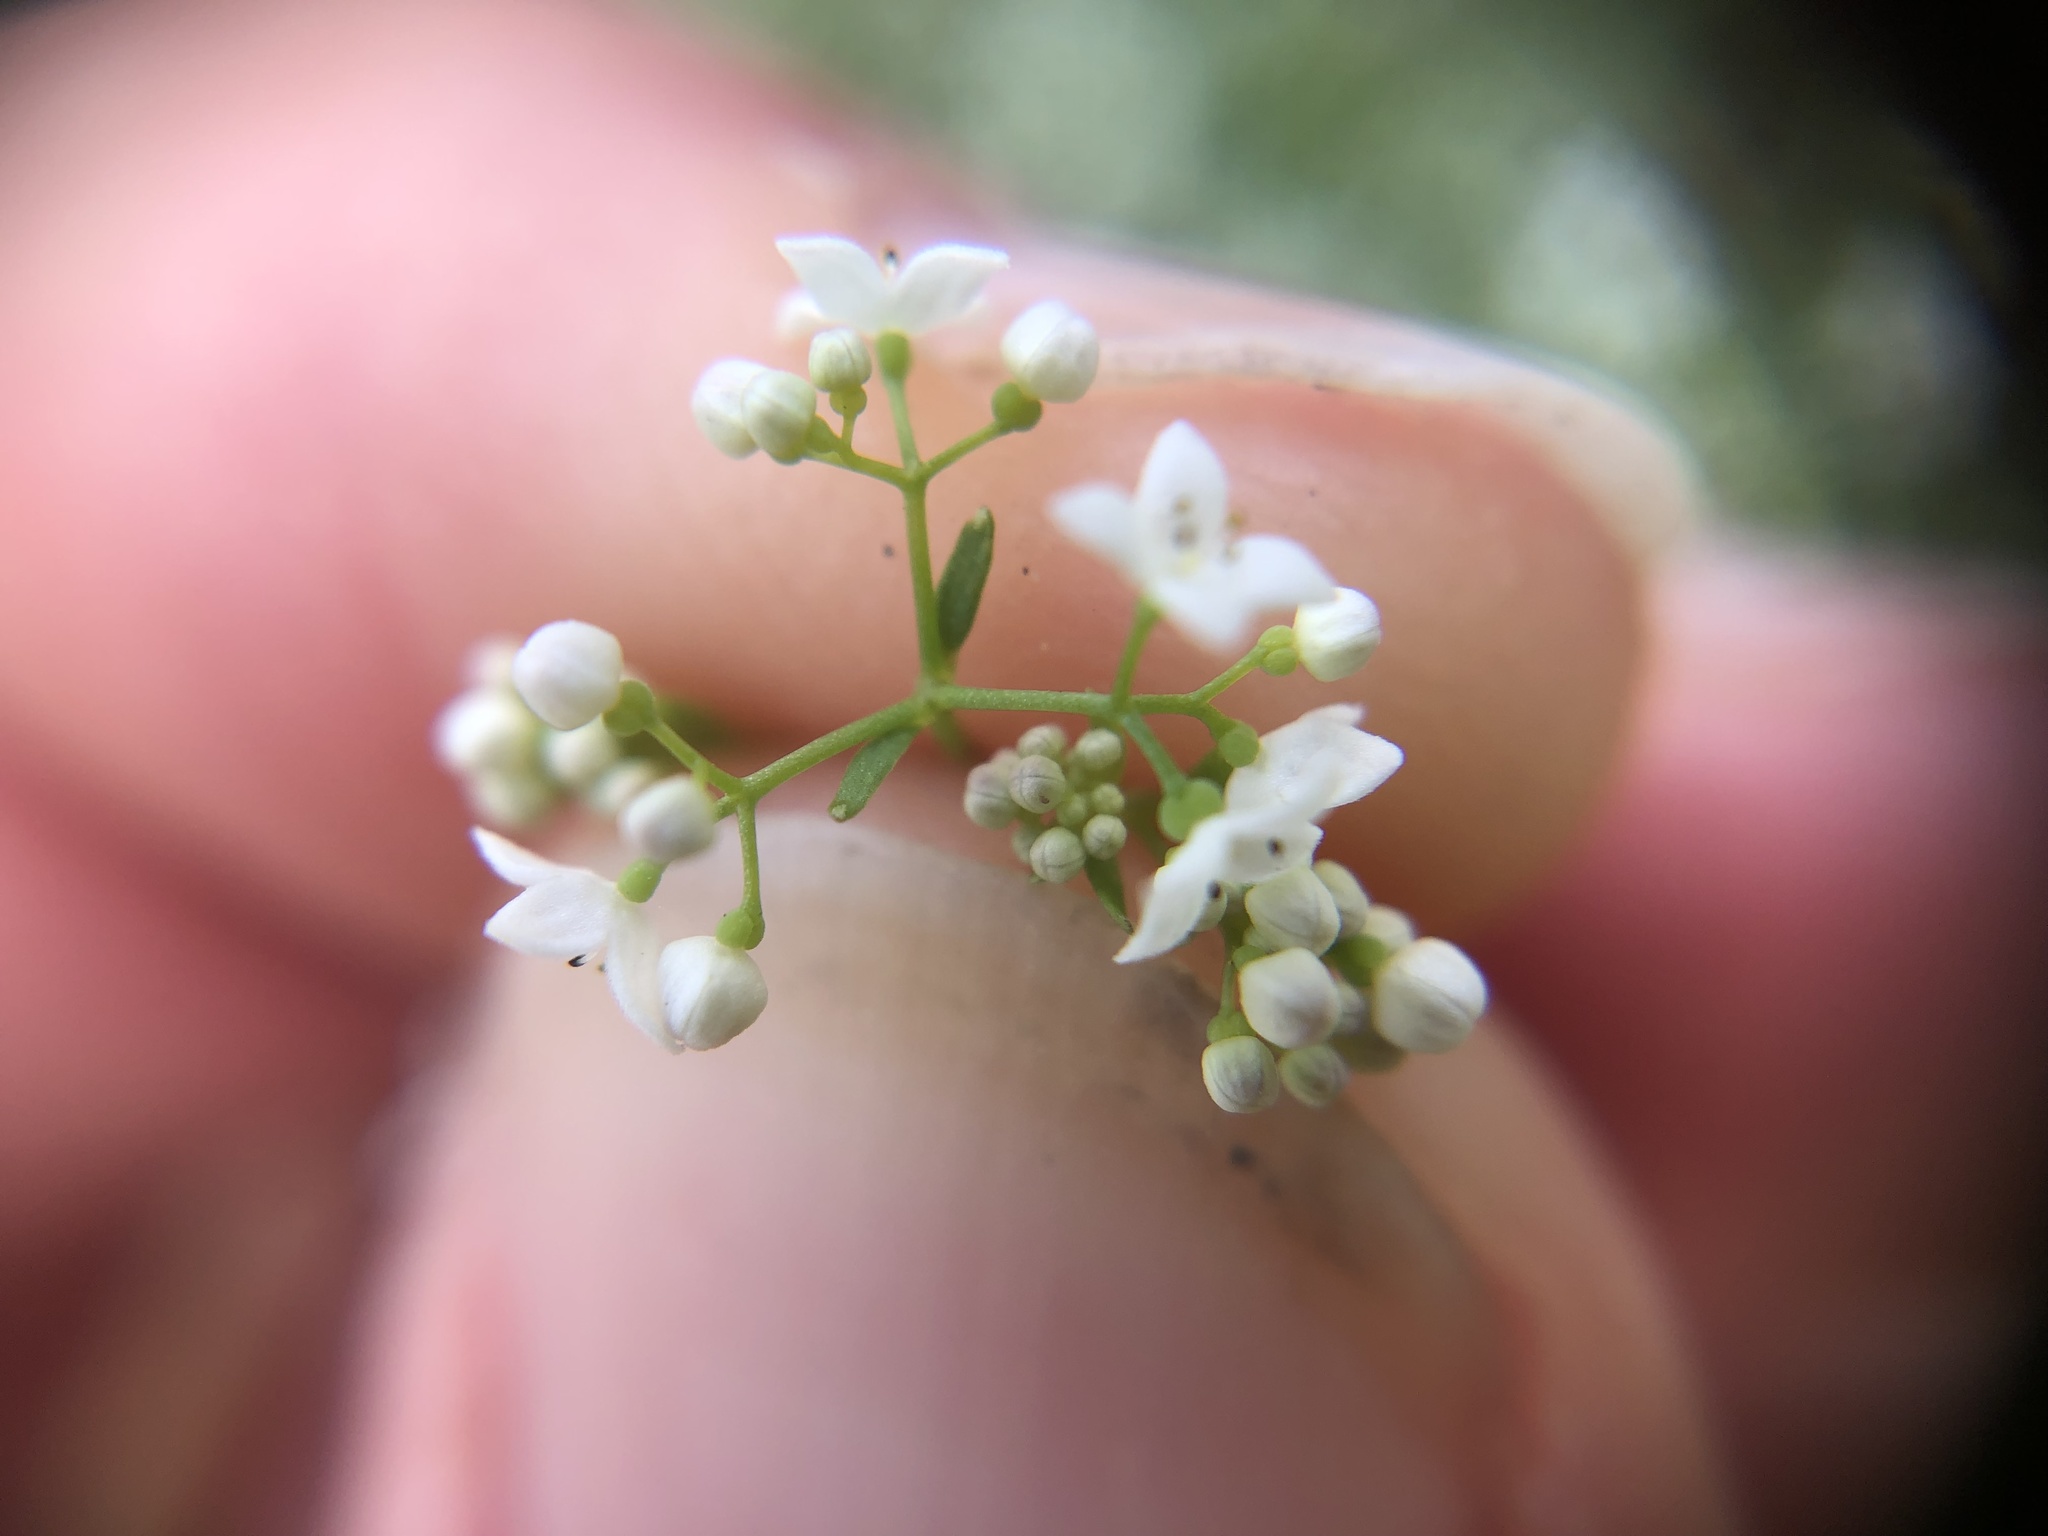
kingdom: Plantae
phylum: Tracheophyta
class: Magnoliopsida
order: Gentianales
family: Rubiaceae
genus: Galium
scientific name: Galium palustre
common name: Common marsh-bedstraw
